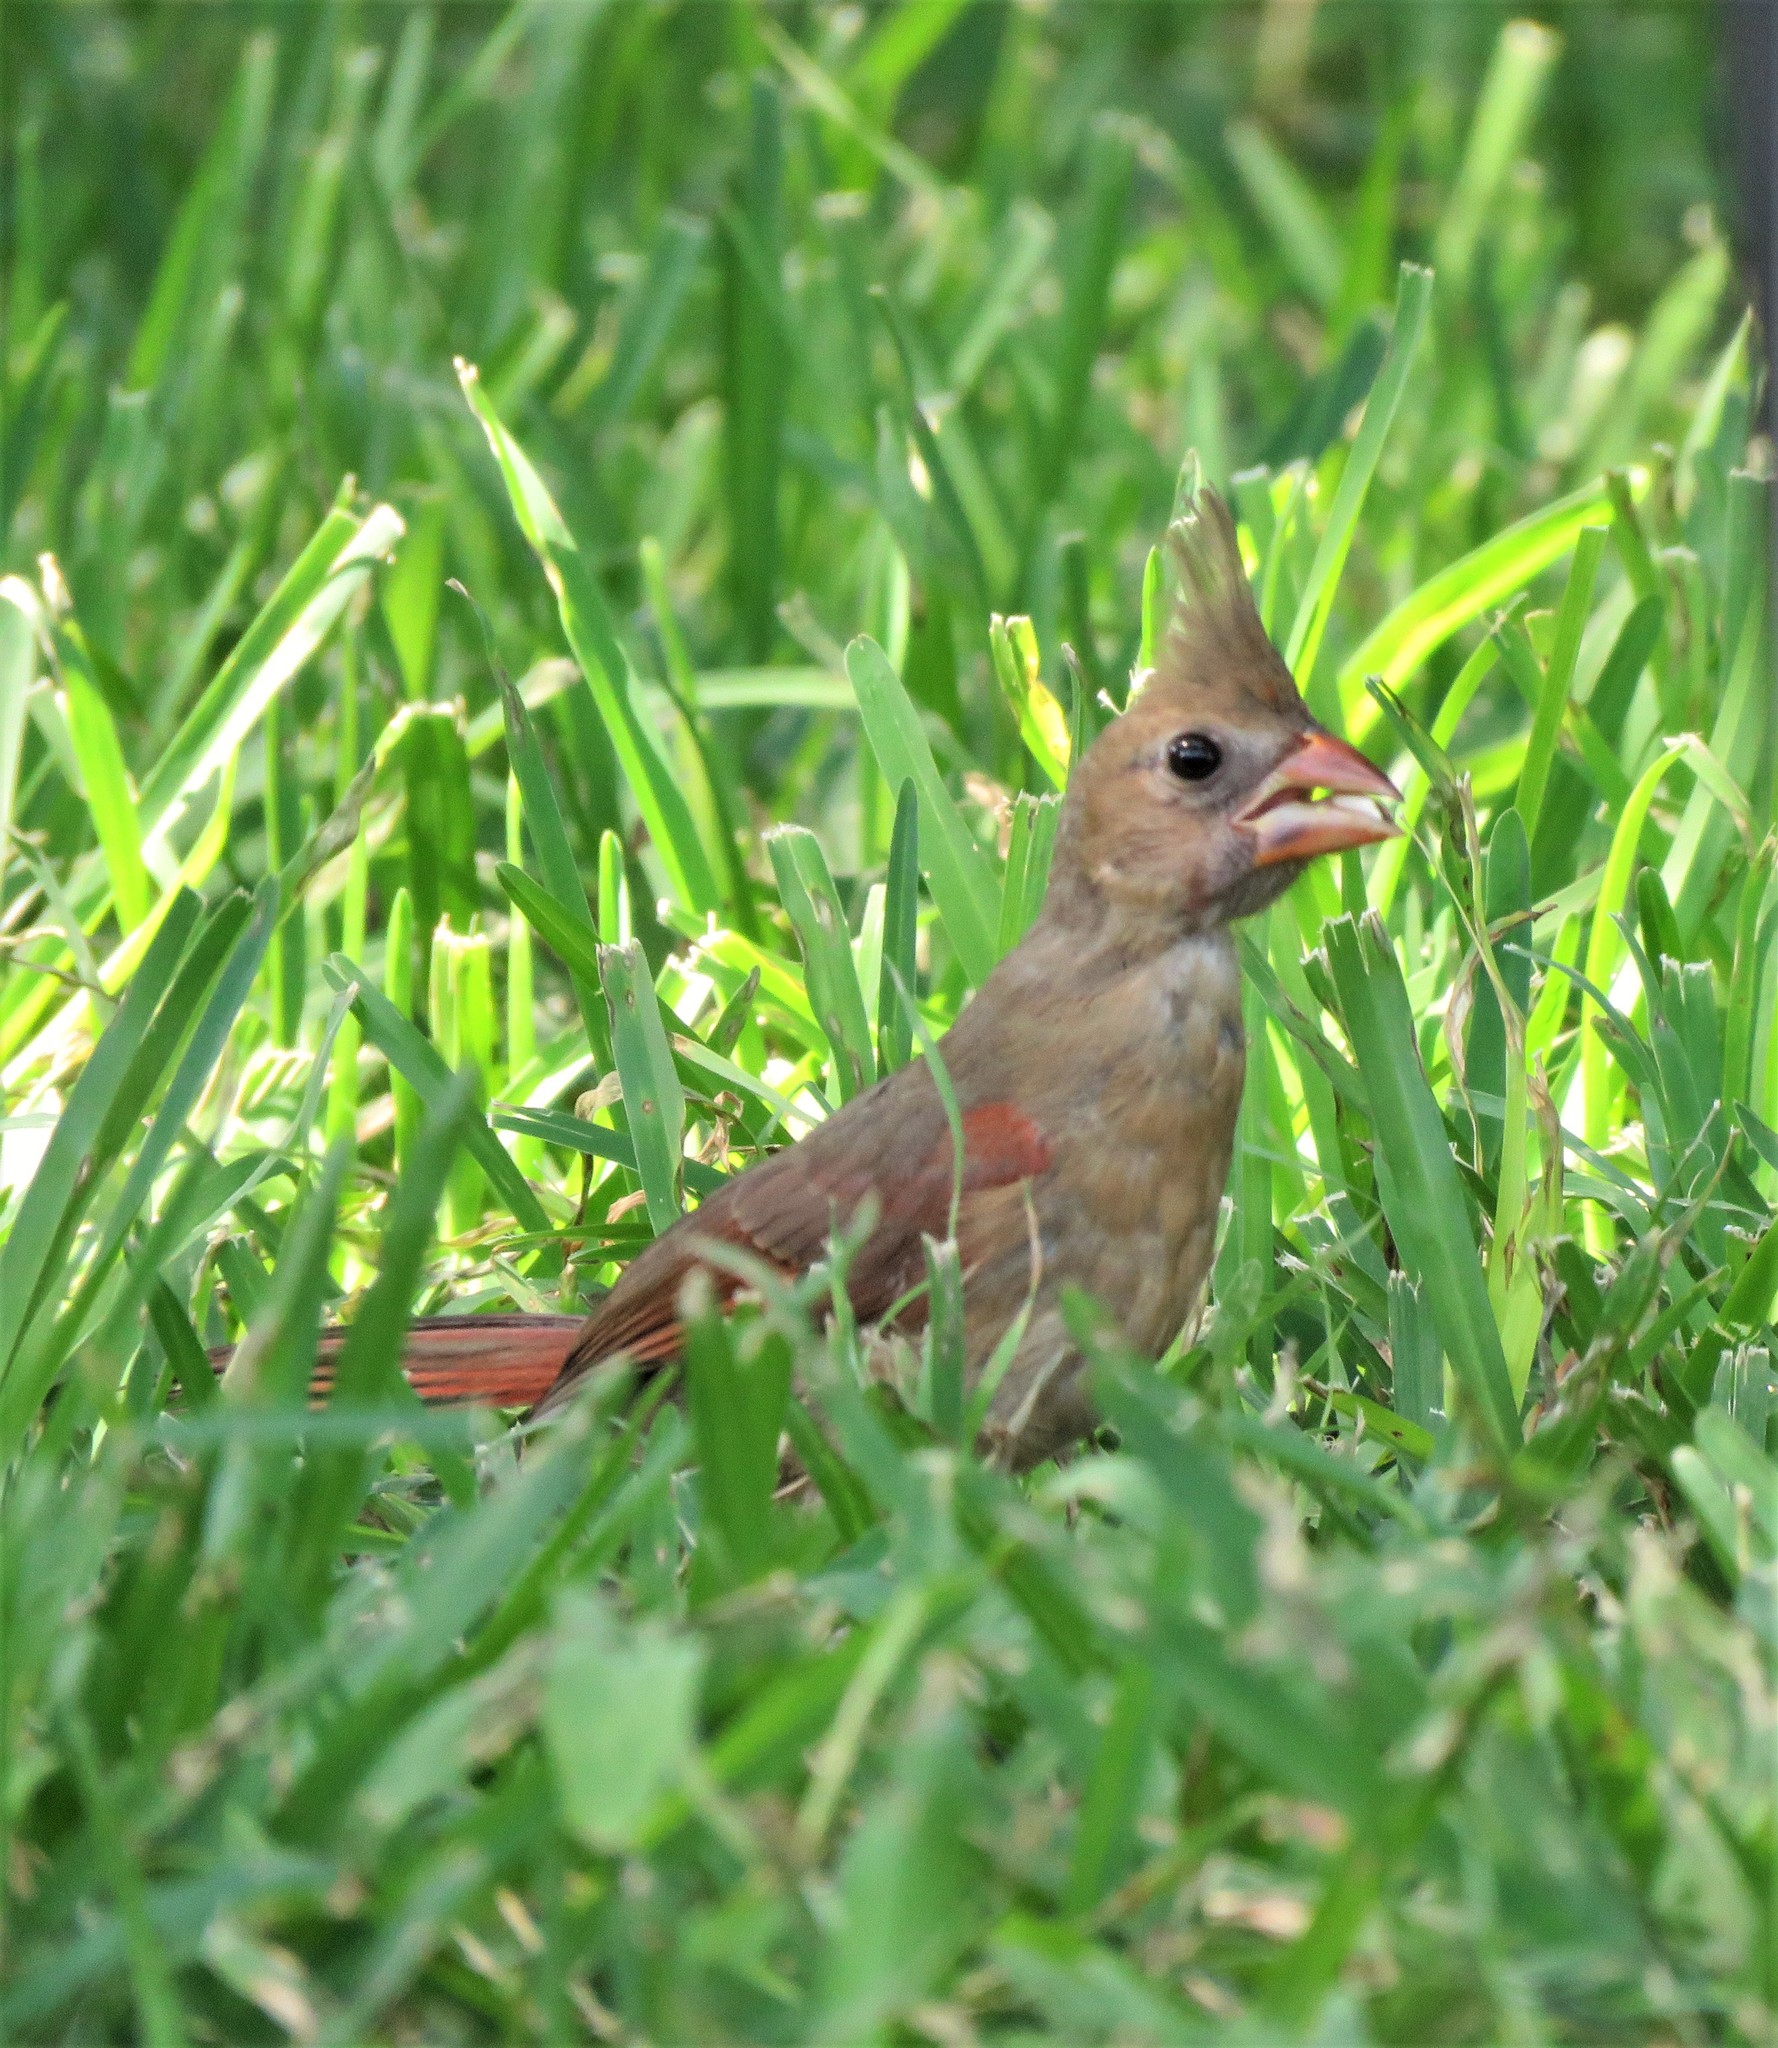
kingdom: Animalia
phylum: Chordata
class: Aves
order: Passeriformes
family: Cardinalidae
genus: Cardinalis
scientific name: Cardinalis cardinalis
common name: Northern cardinal
